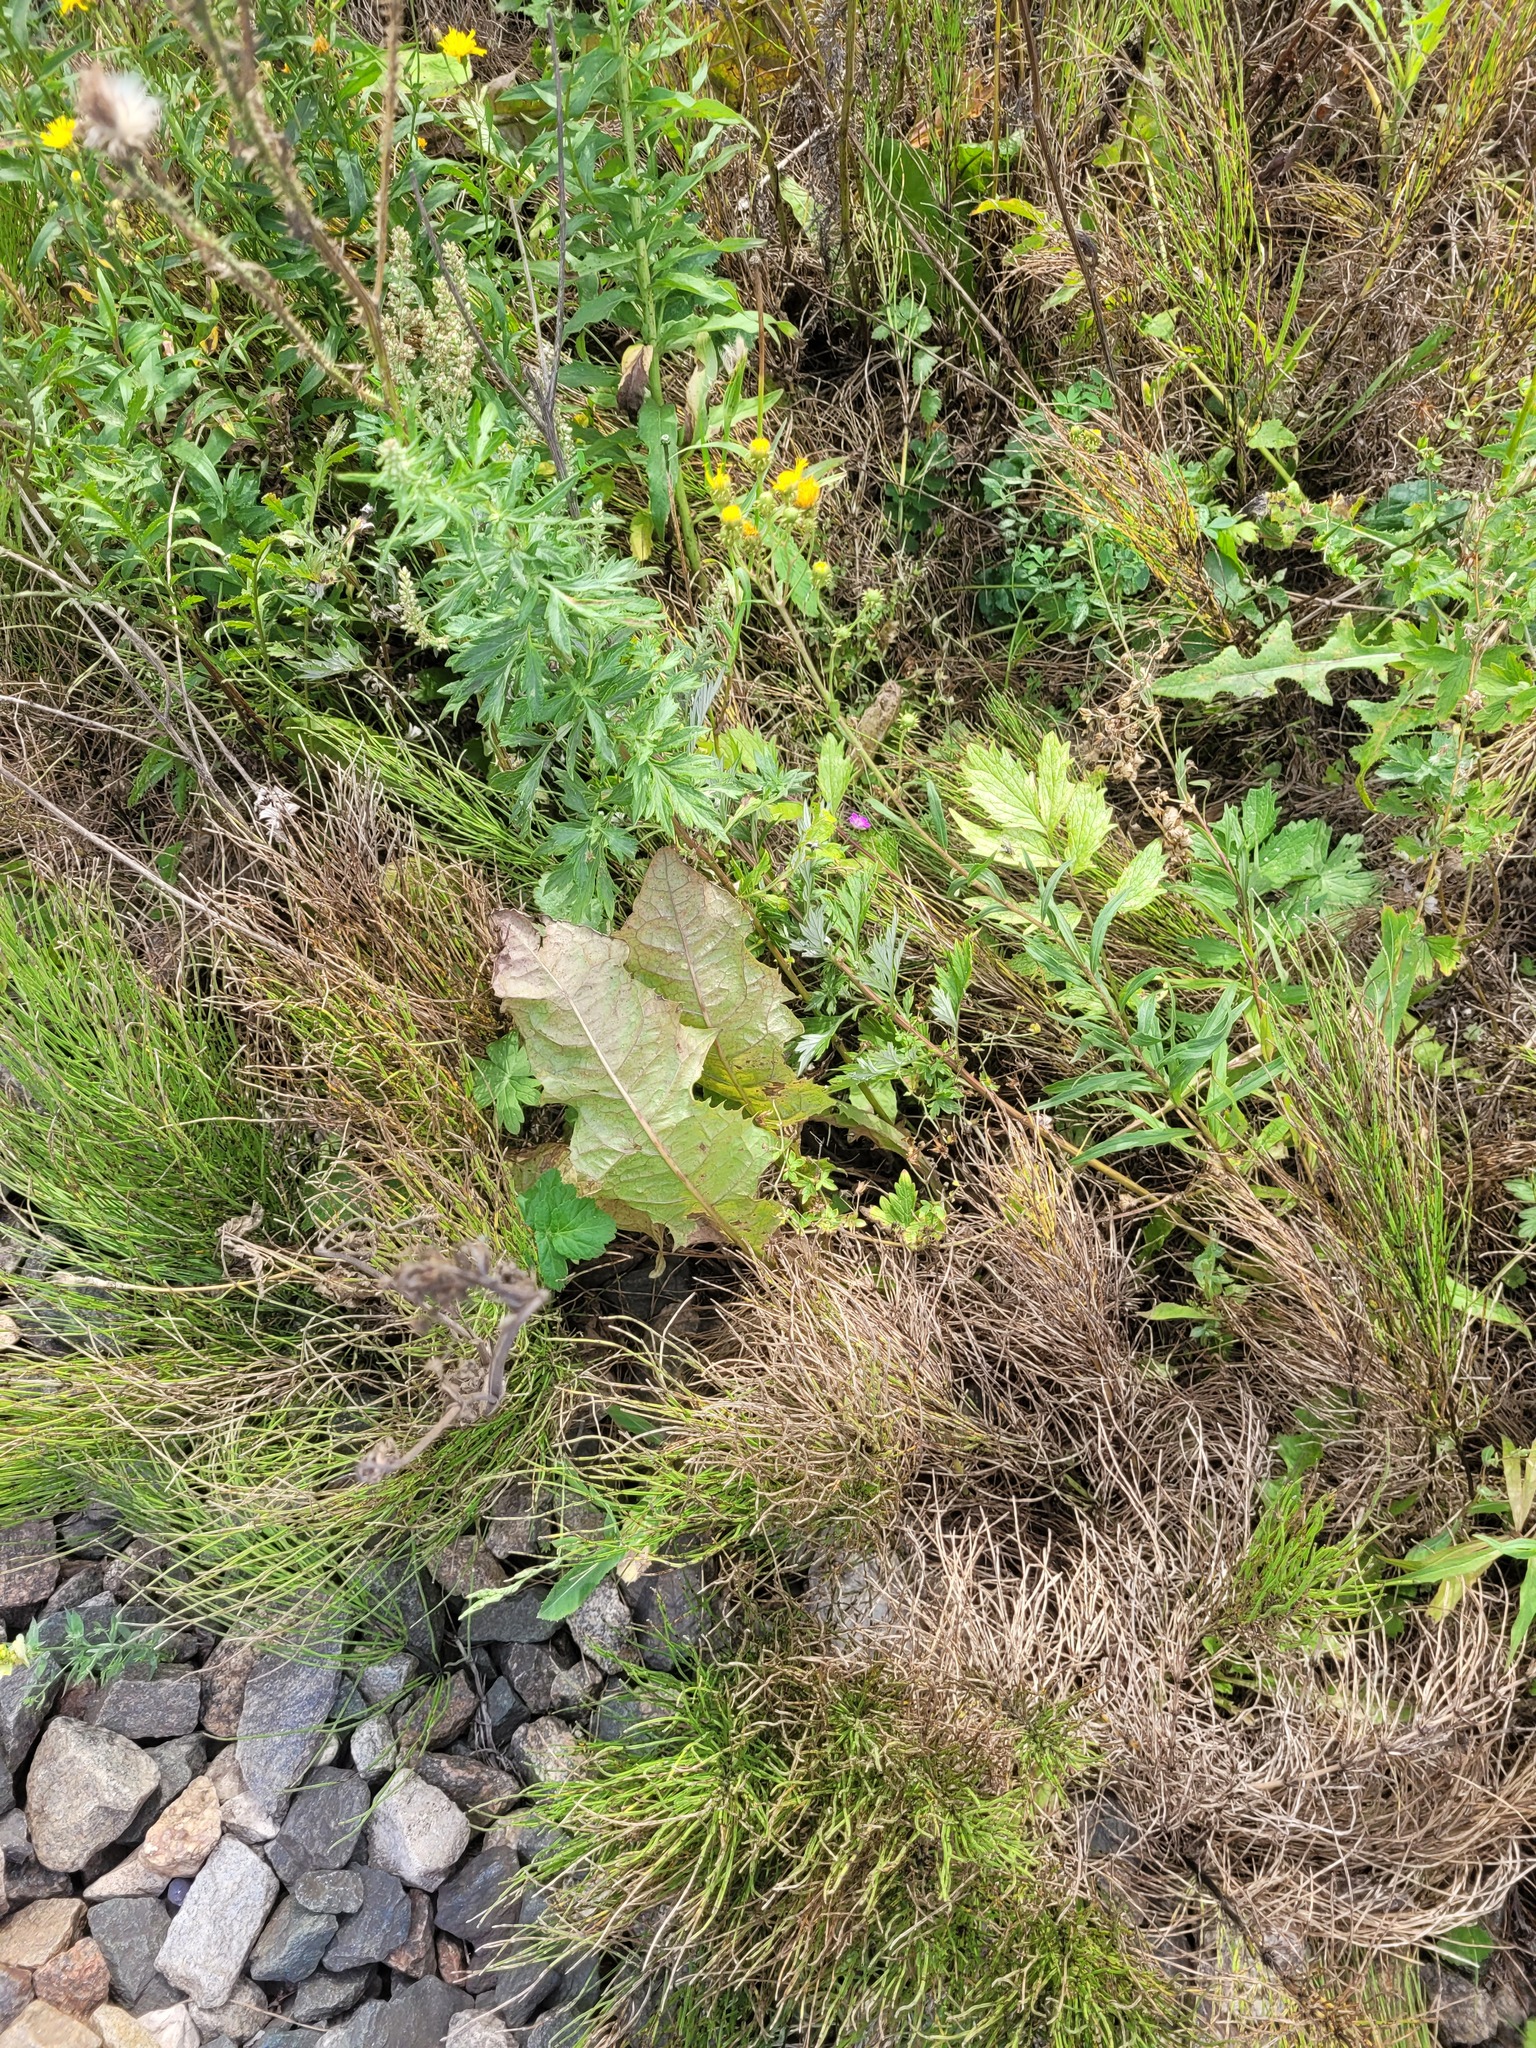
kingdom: Plantae
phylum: Tracheophyta
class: Magnoliopsida
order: Asterales
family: Asteraceae
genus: Taraxacum
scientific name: Taraxacum officinale
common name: Common dandelion
